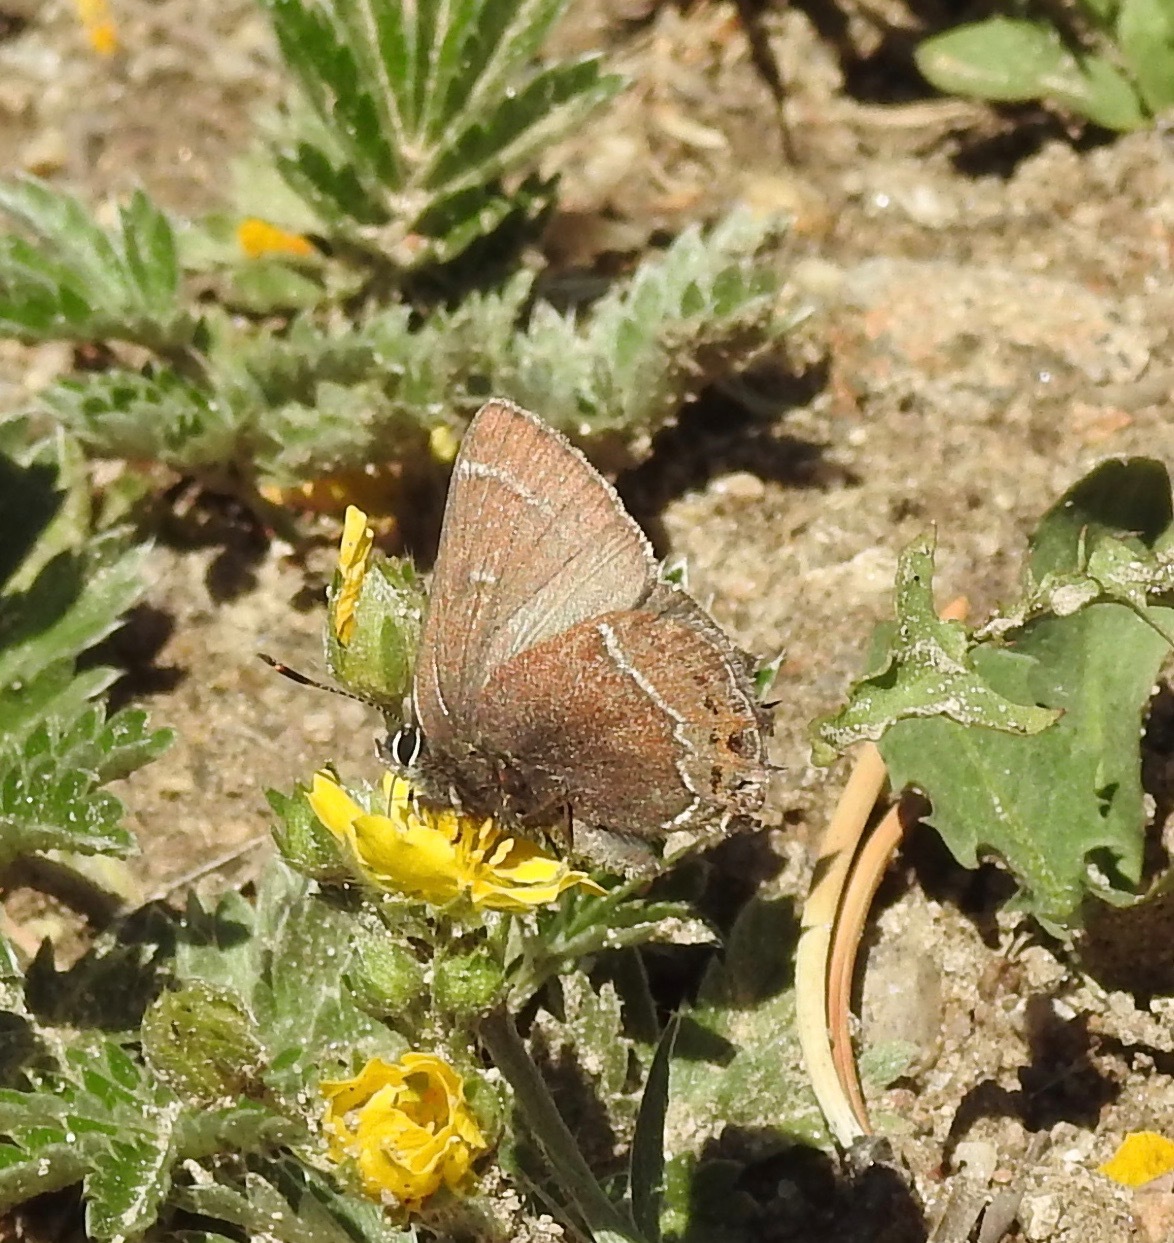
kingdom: Animalia
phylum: Arthropoda
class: Insecta
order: Lepidoptera
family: Lycaenidae
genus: Mitoura
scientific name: Mitoura spinetorum
